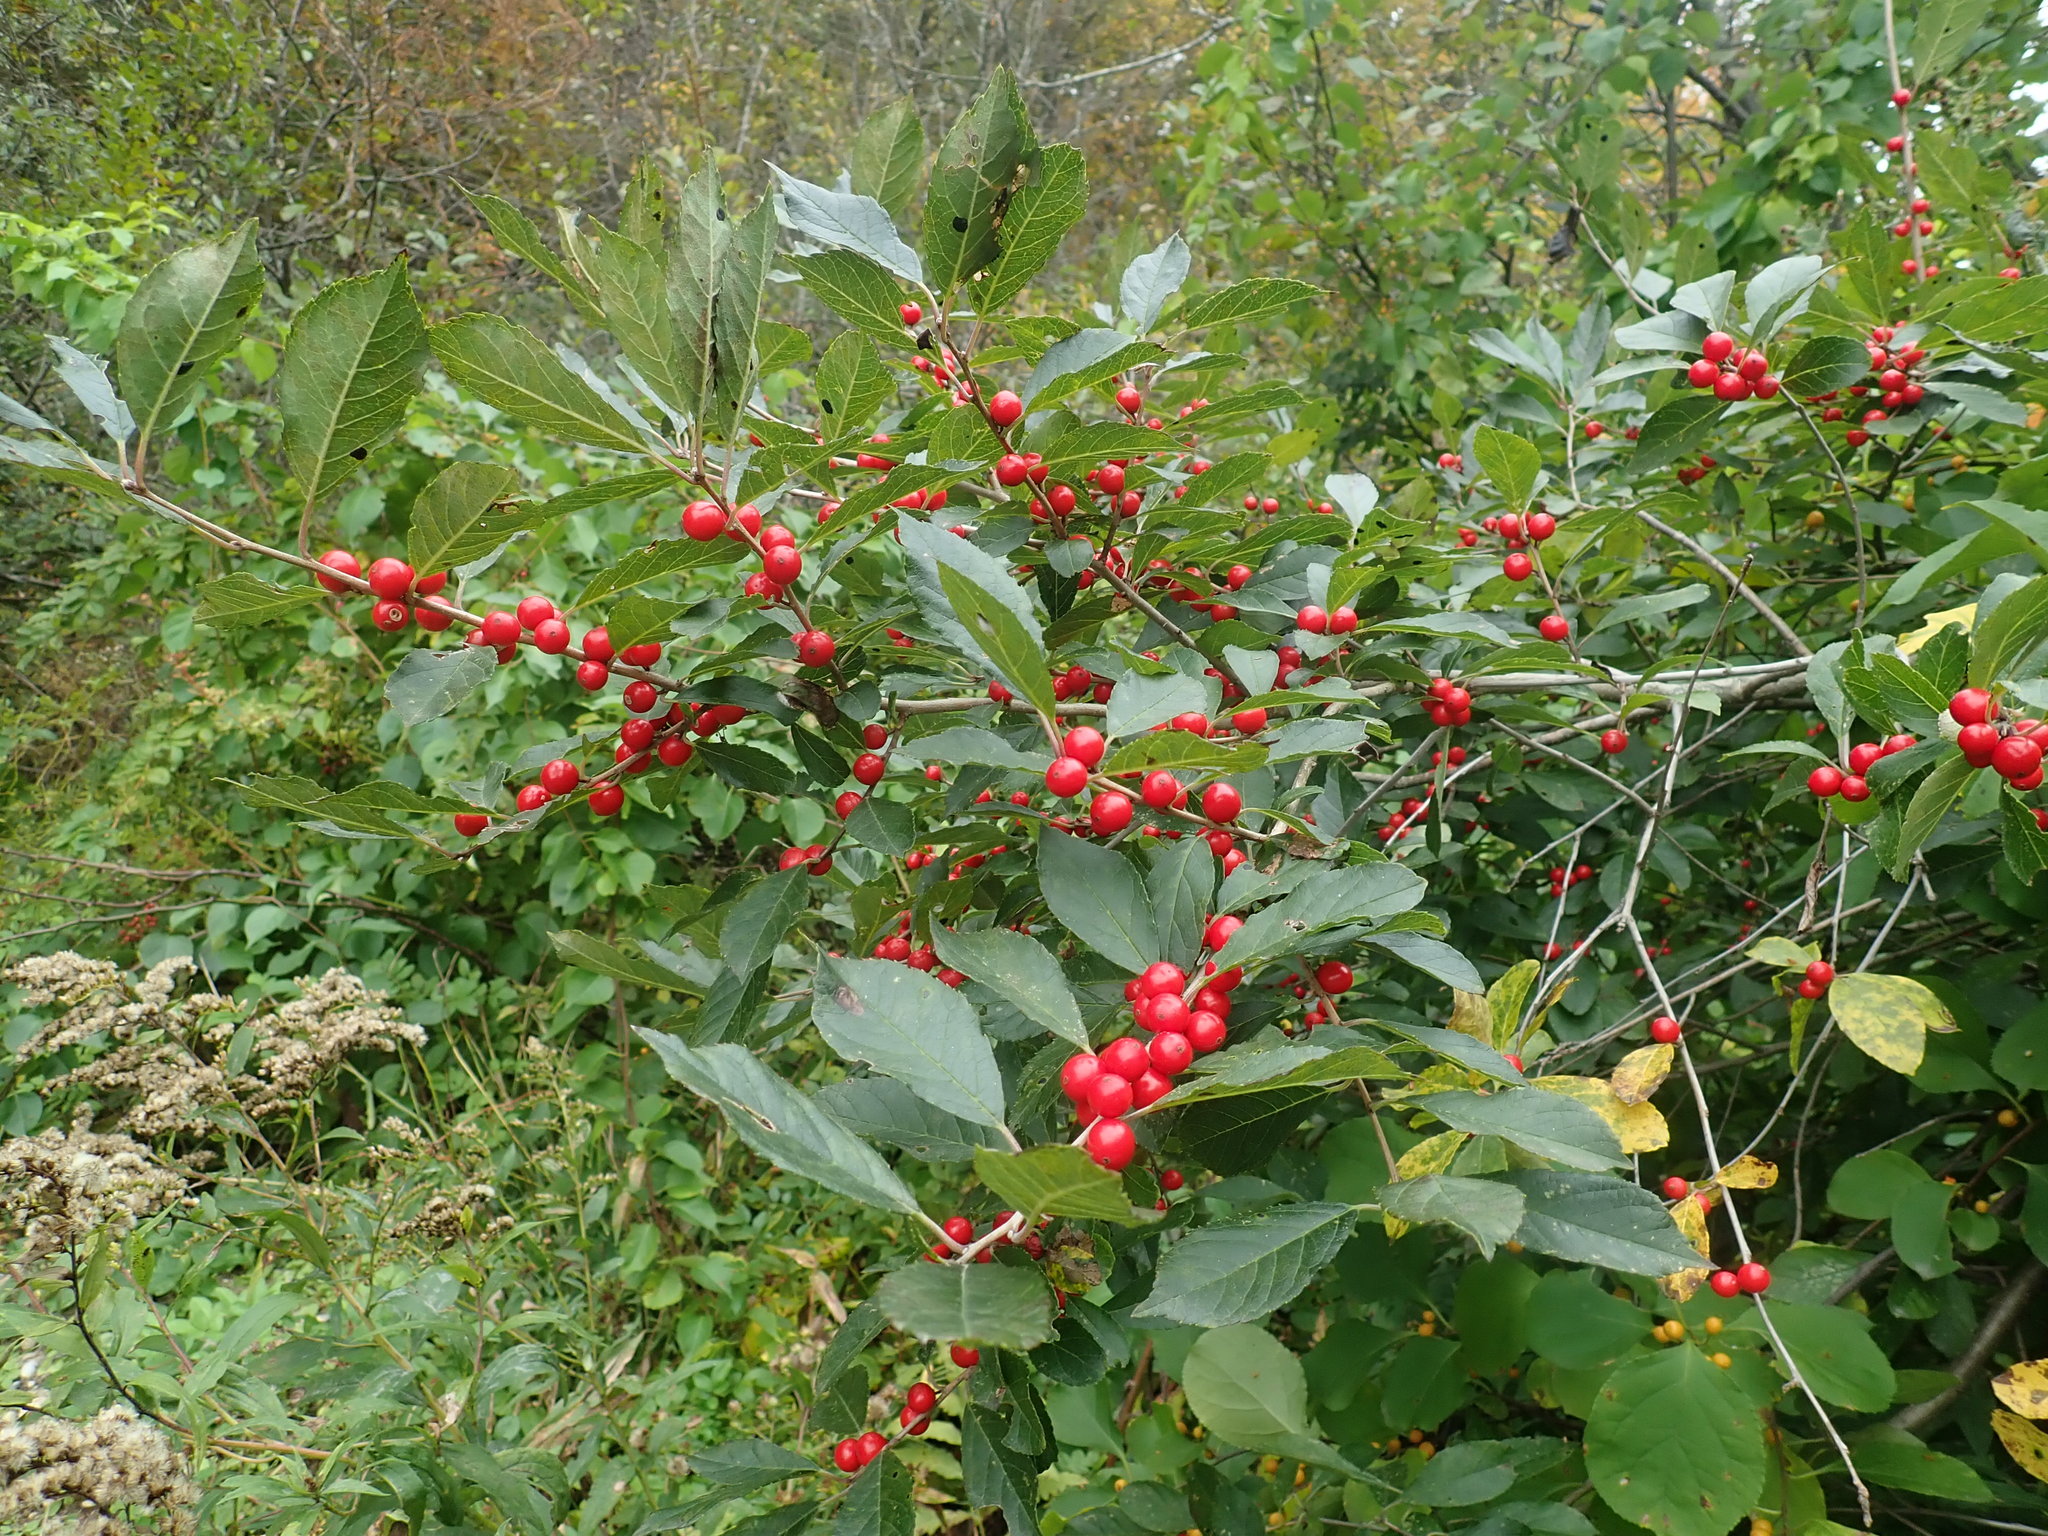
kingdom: Plantae
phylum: Tracheophyta
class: Magnoliopsida
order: Aquifoliales
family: Aquifoliaceae
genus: Ilex
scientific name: Ilex verticillata
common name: Virginia winterberry
